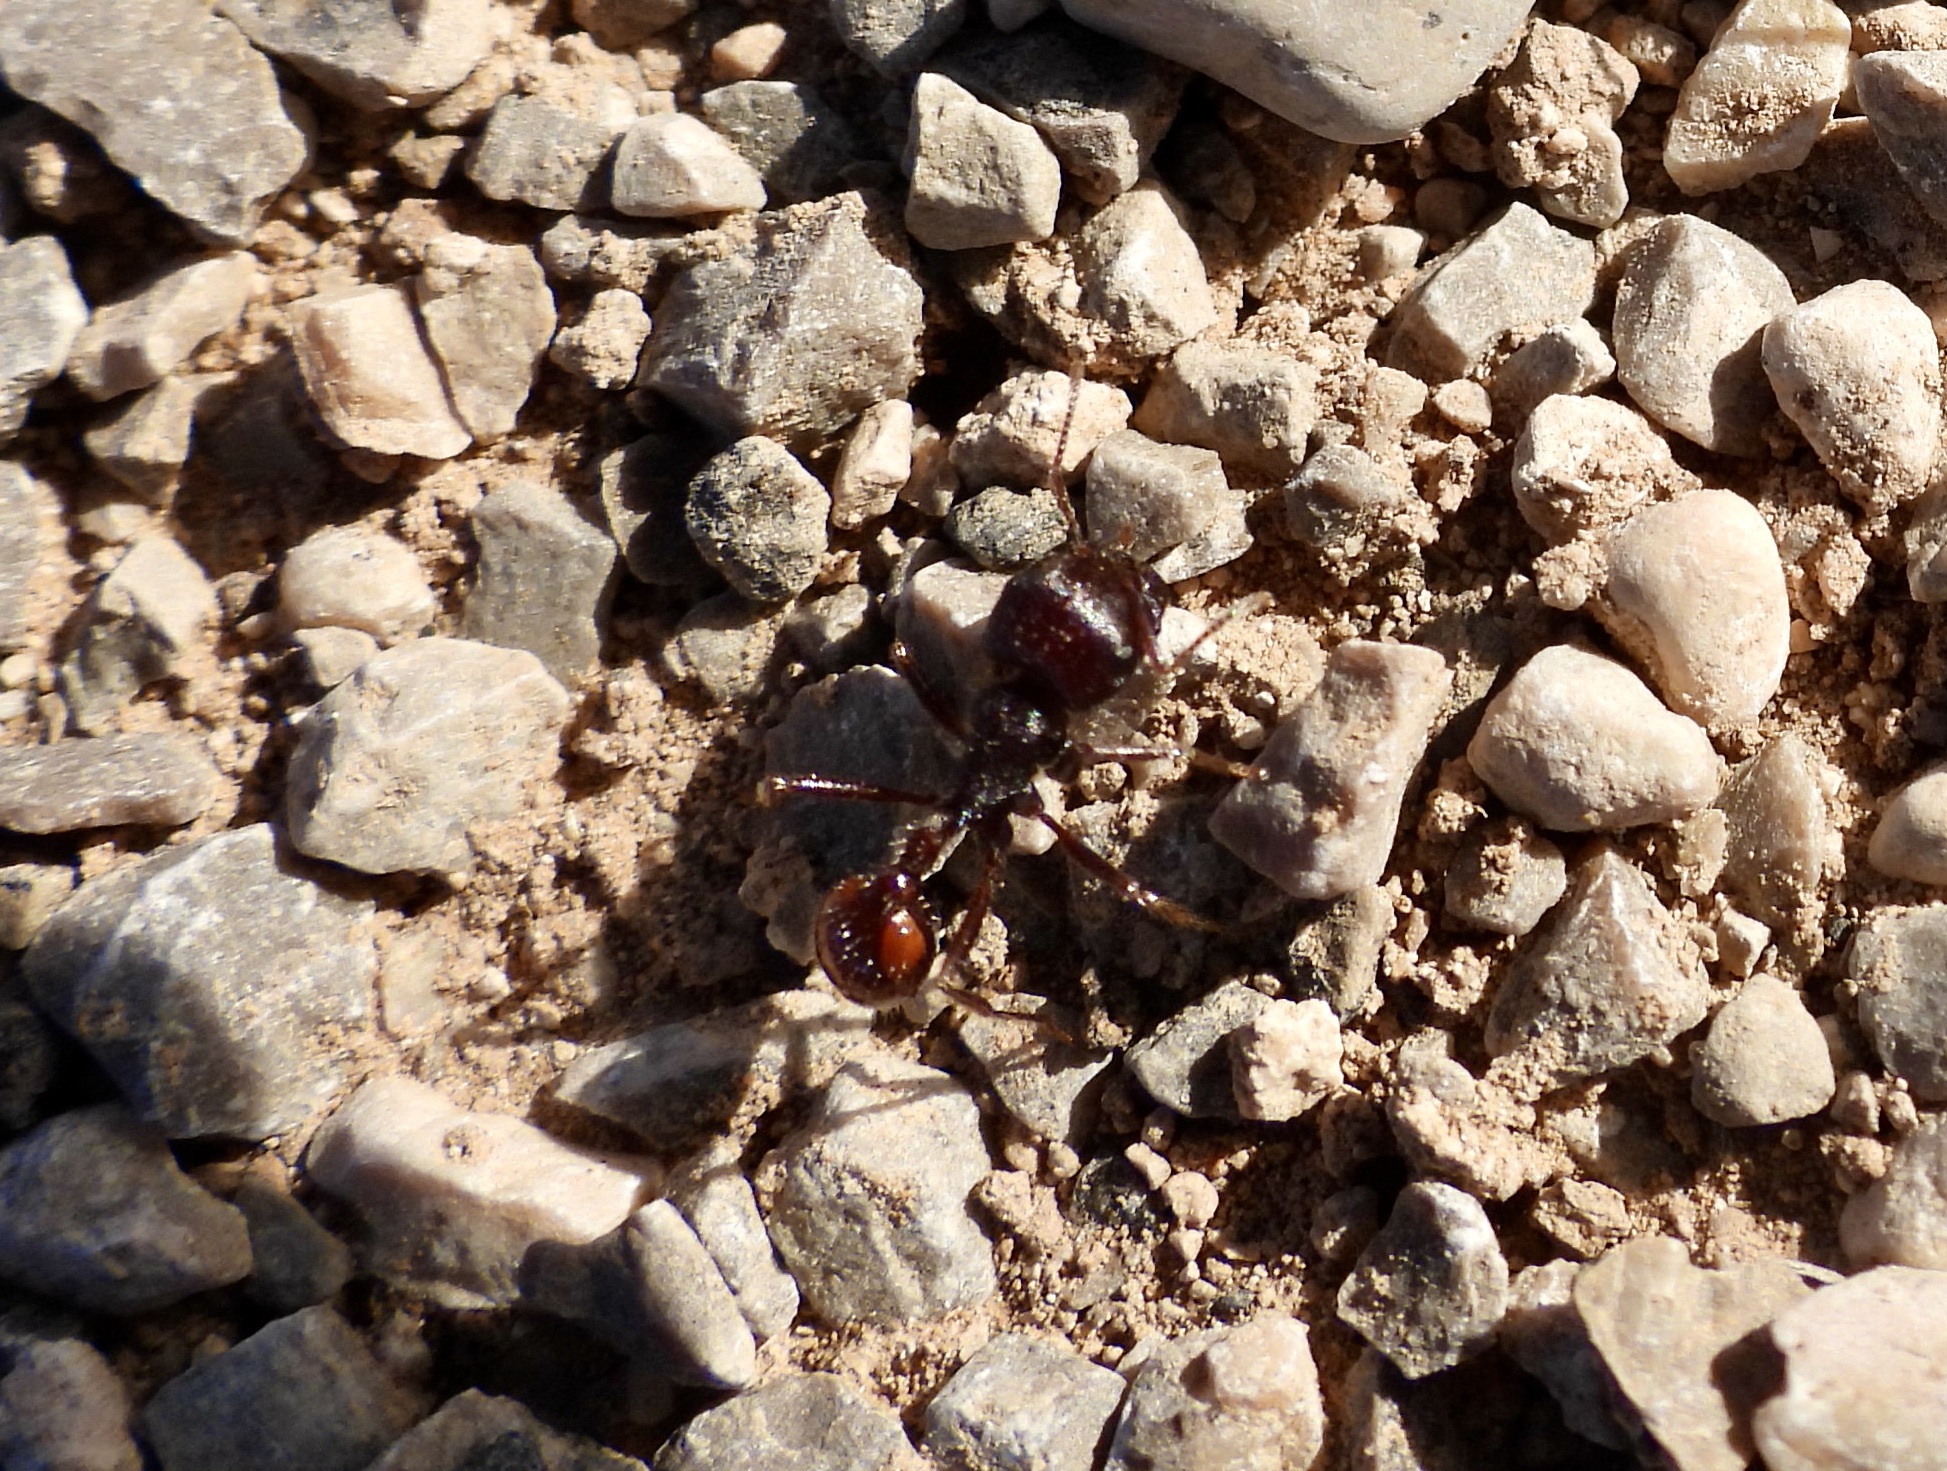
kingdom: Animalia
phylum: Arthropoda
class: Insecta
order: Hymenoptera
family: Formicidae
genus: Pogonomyrmex
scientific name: Pogonomyrmex rugosus
